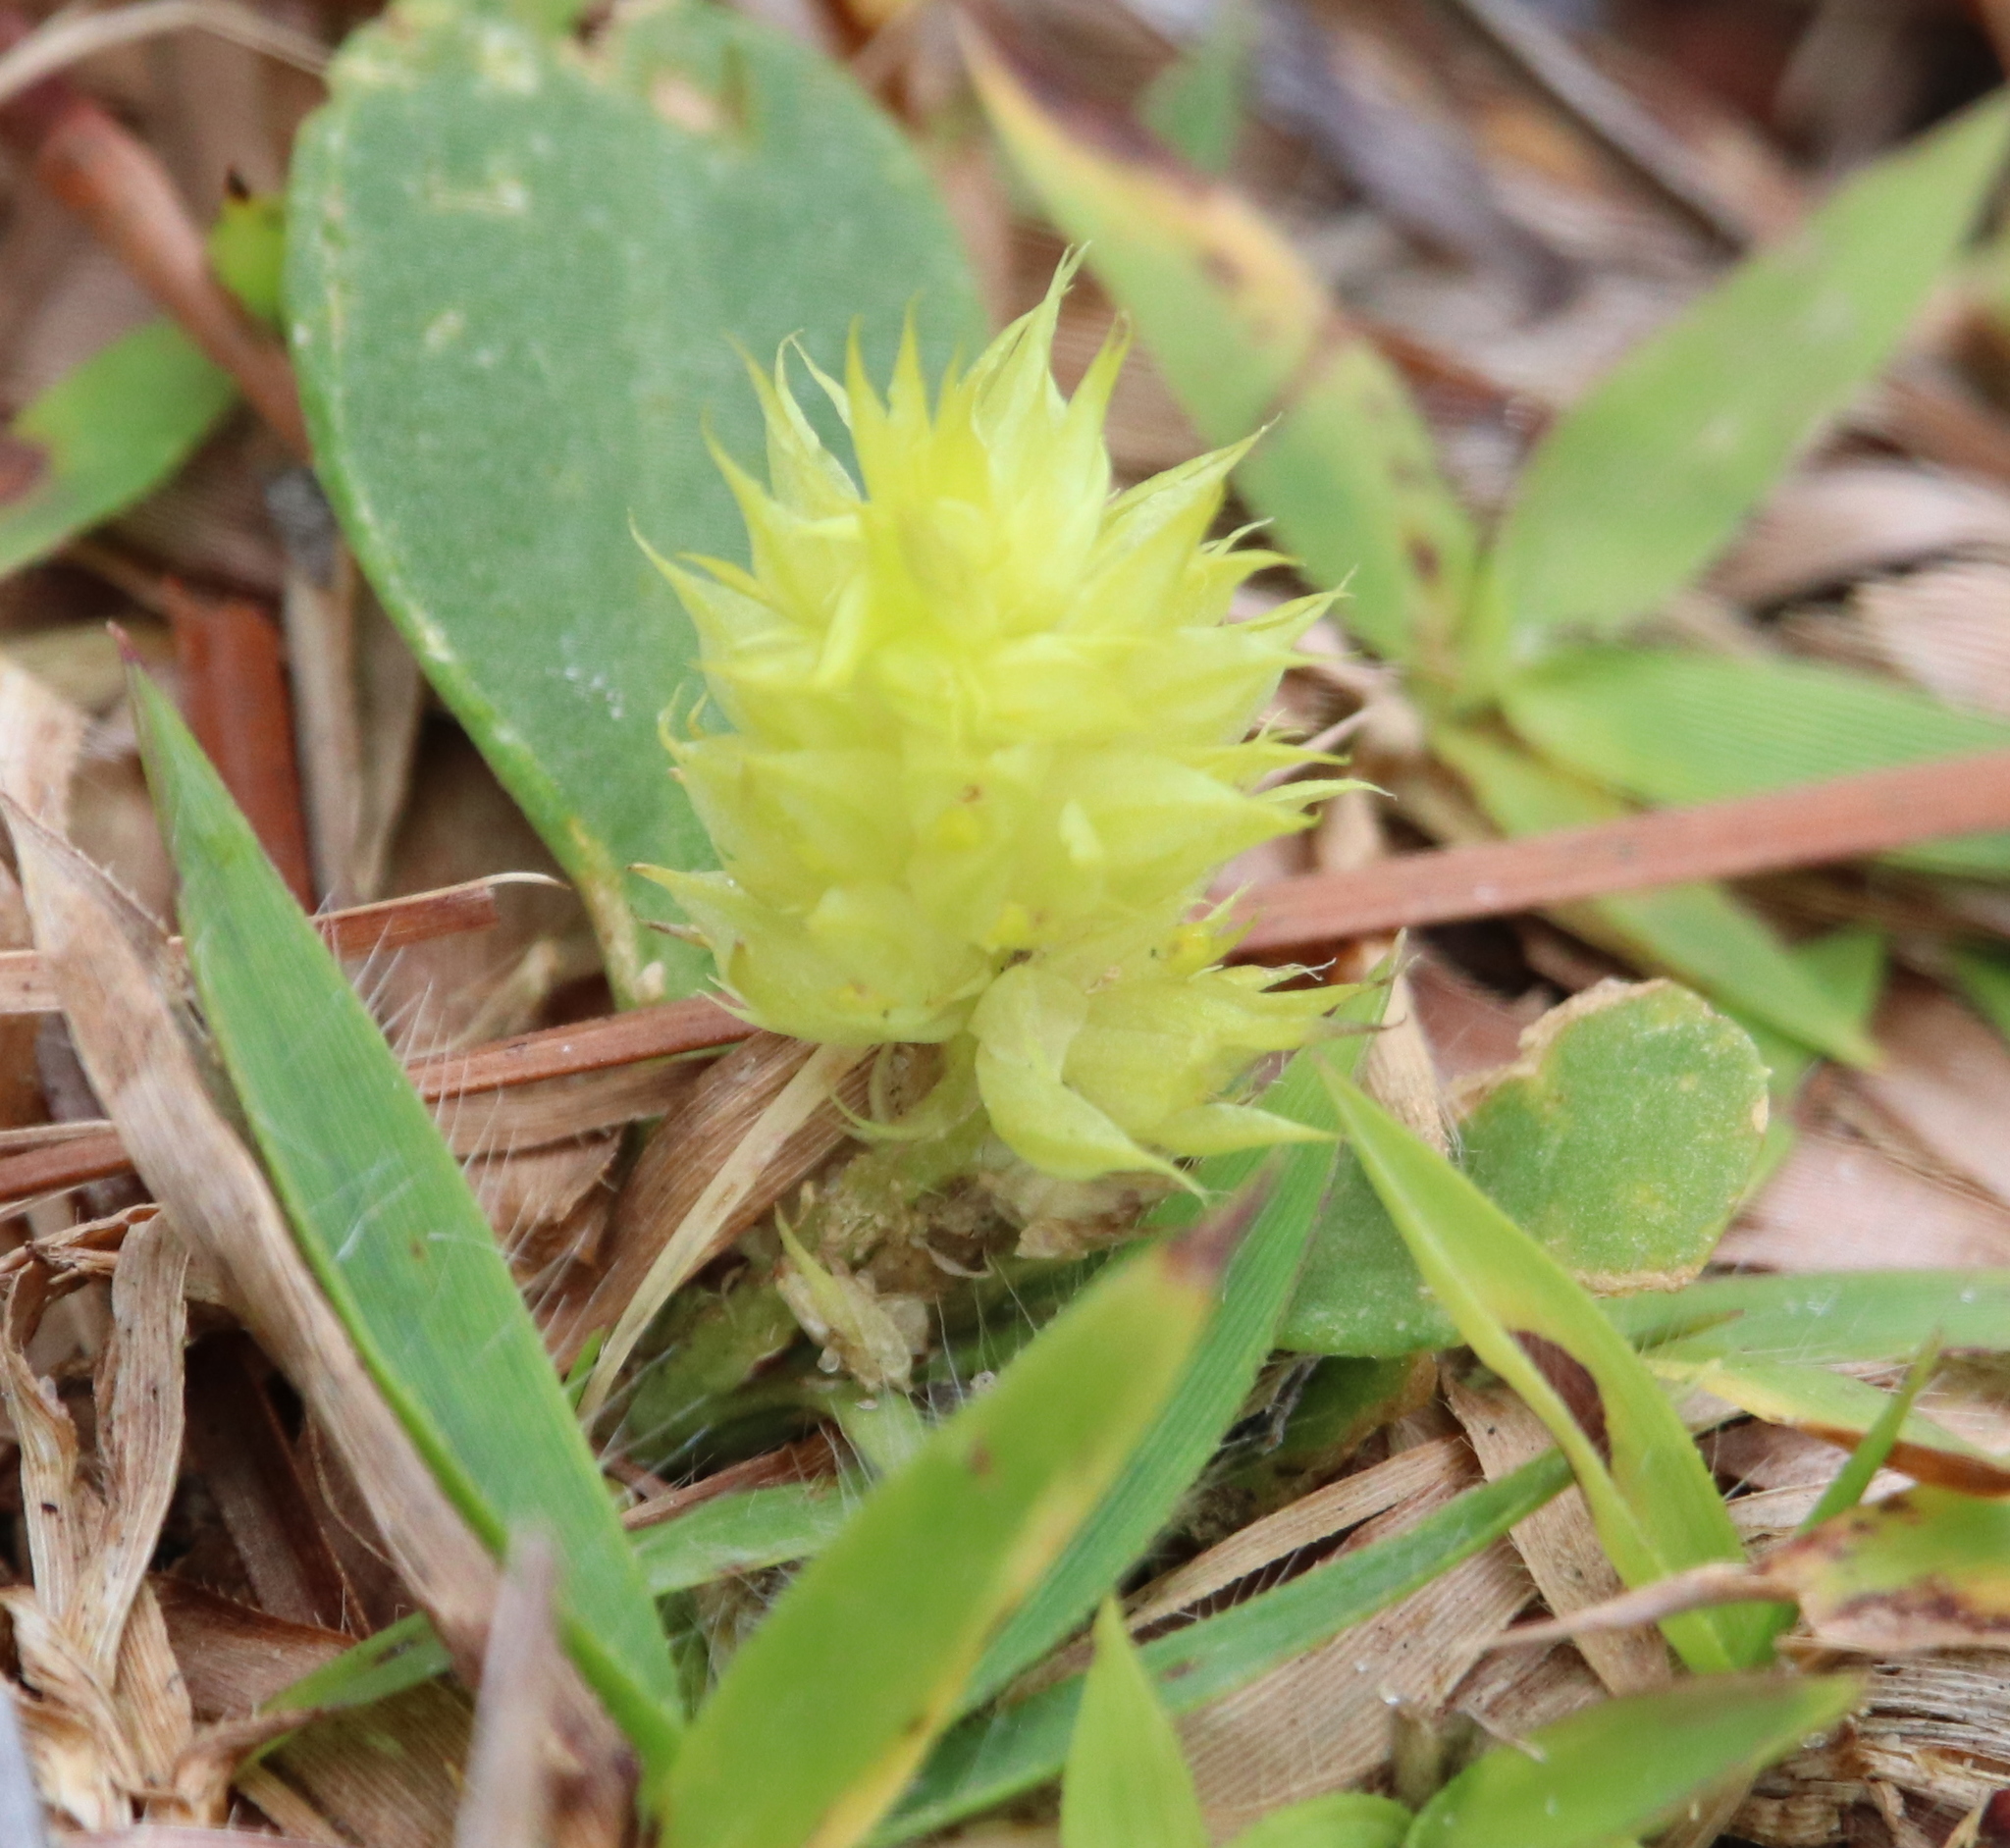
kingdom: Plantae
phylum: Tracheophyta
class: Magnoliopsida
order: Fabales
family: Polygalaceae
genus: Polygala
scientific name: Polygala nana
